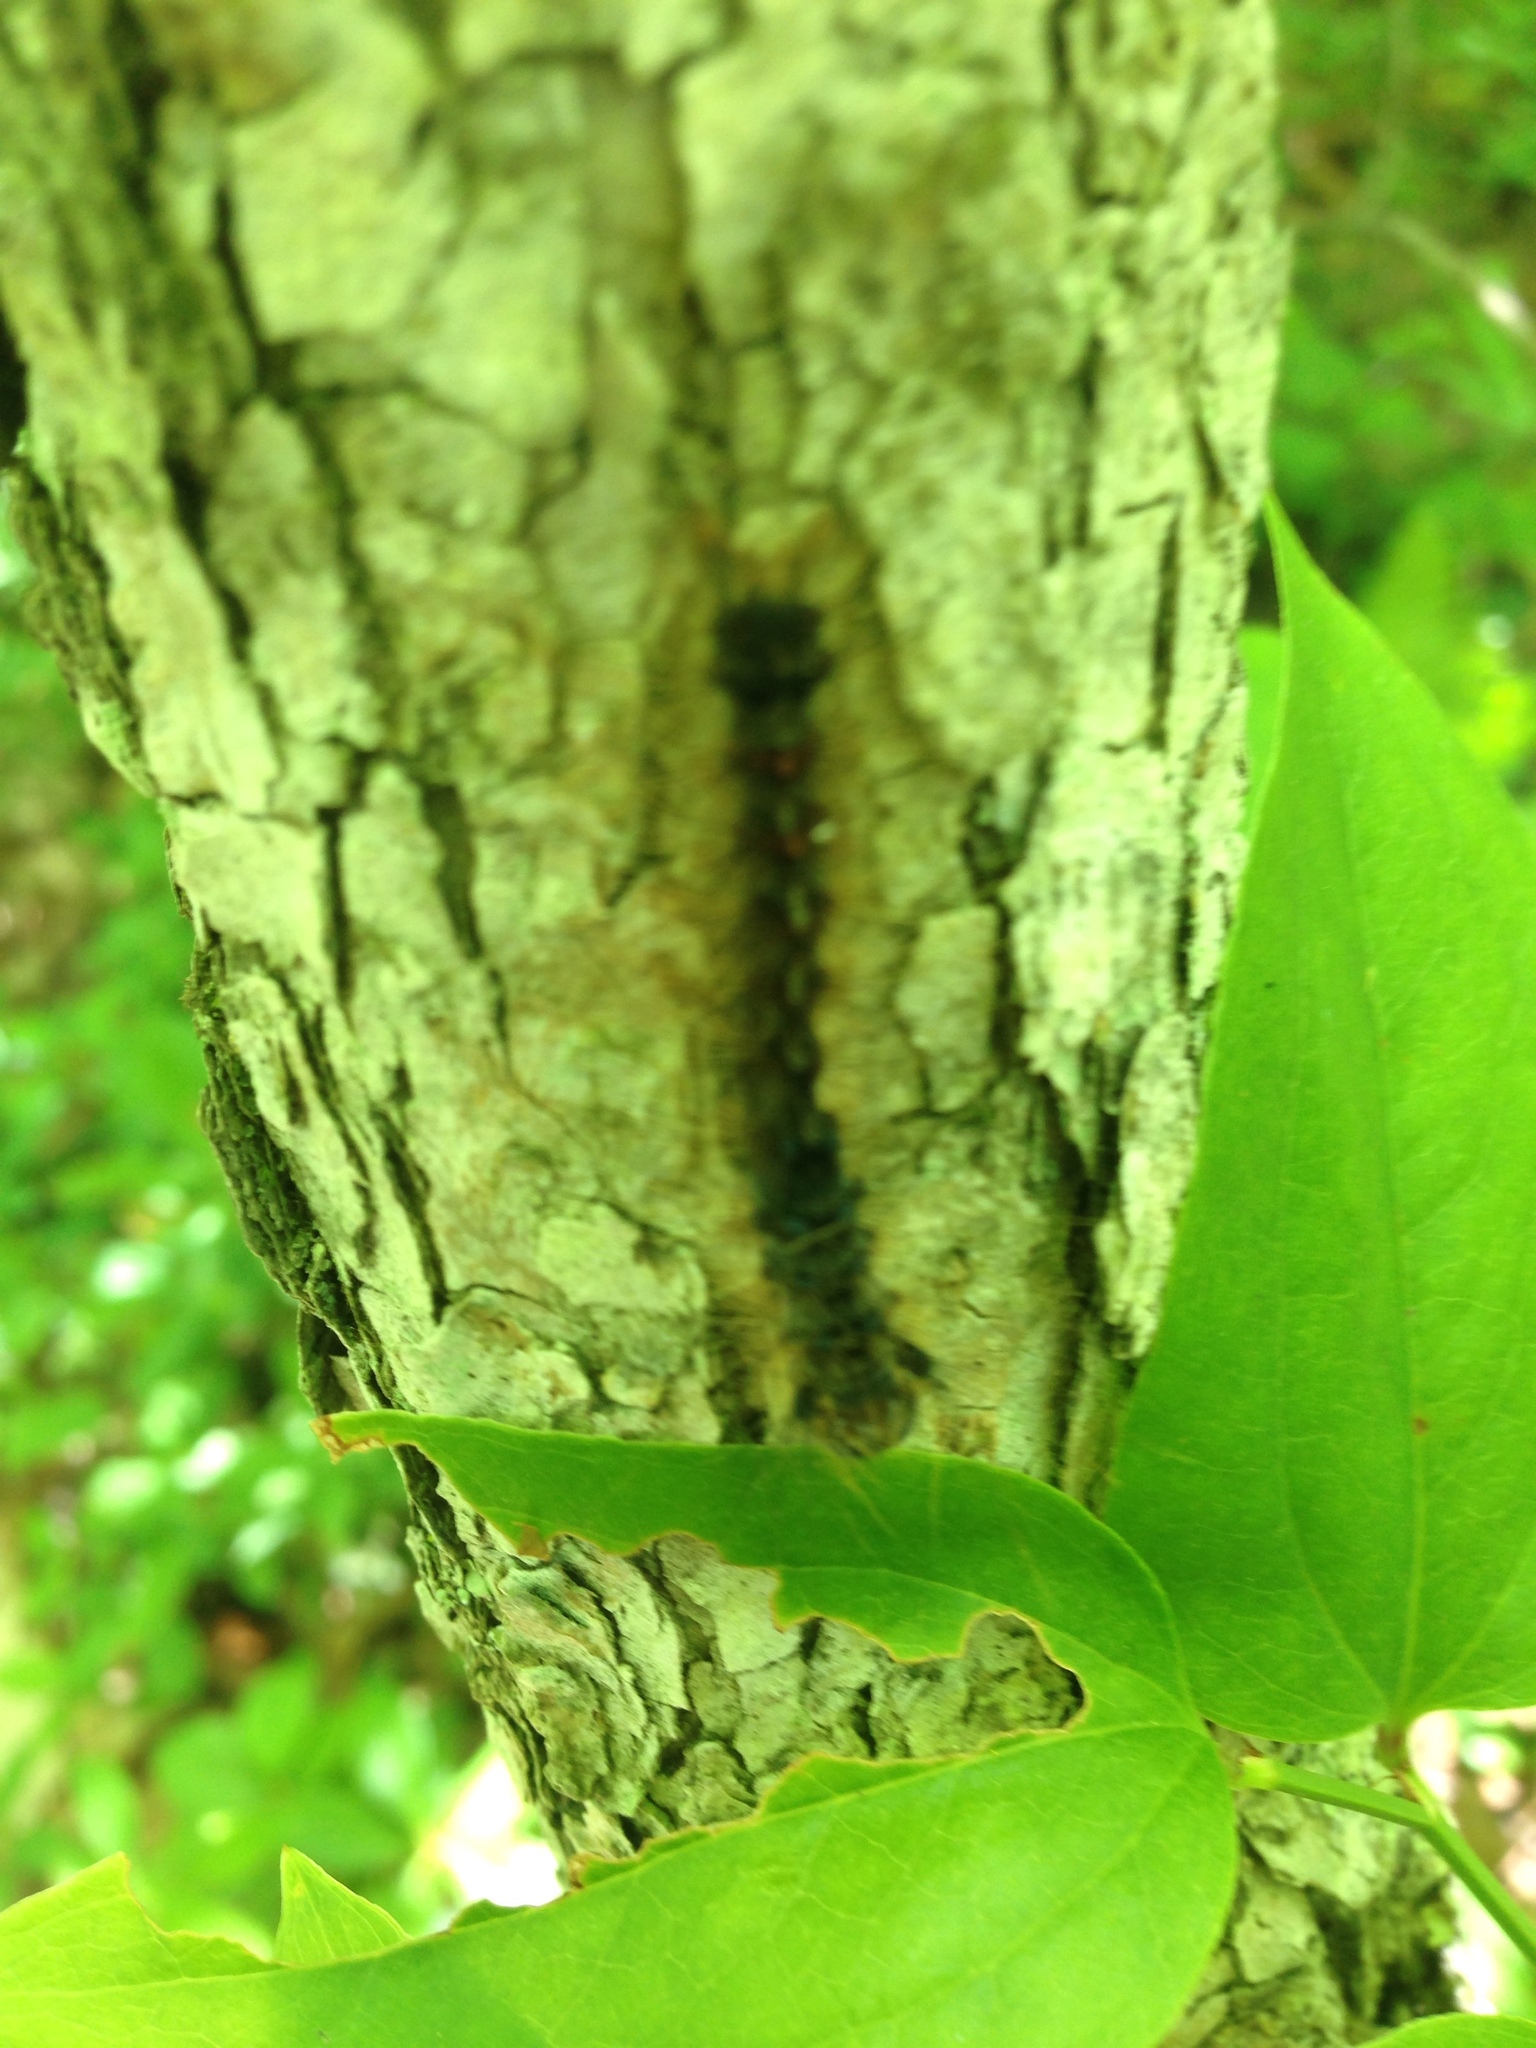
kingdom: Animalia
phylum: Arthropoda
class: Insecta
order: Lepidoptera
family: Erebidae
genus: Lymantria
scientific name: Lymantria dispar
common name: Gypsy moth
